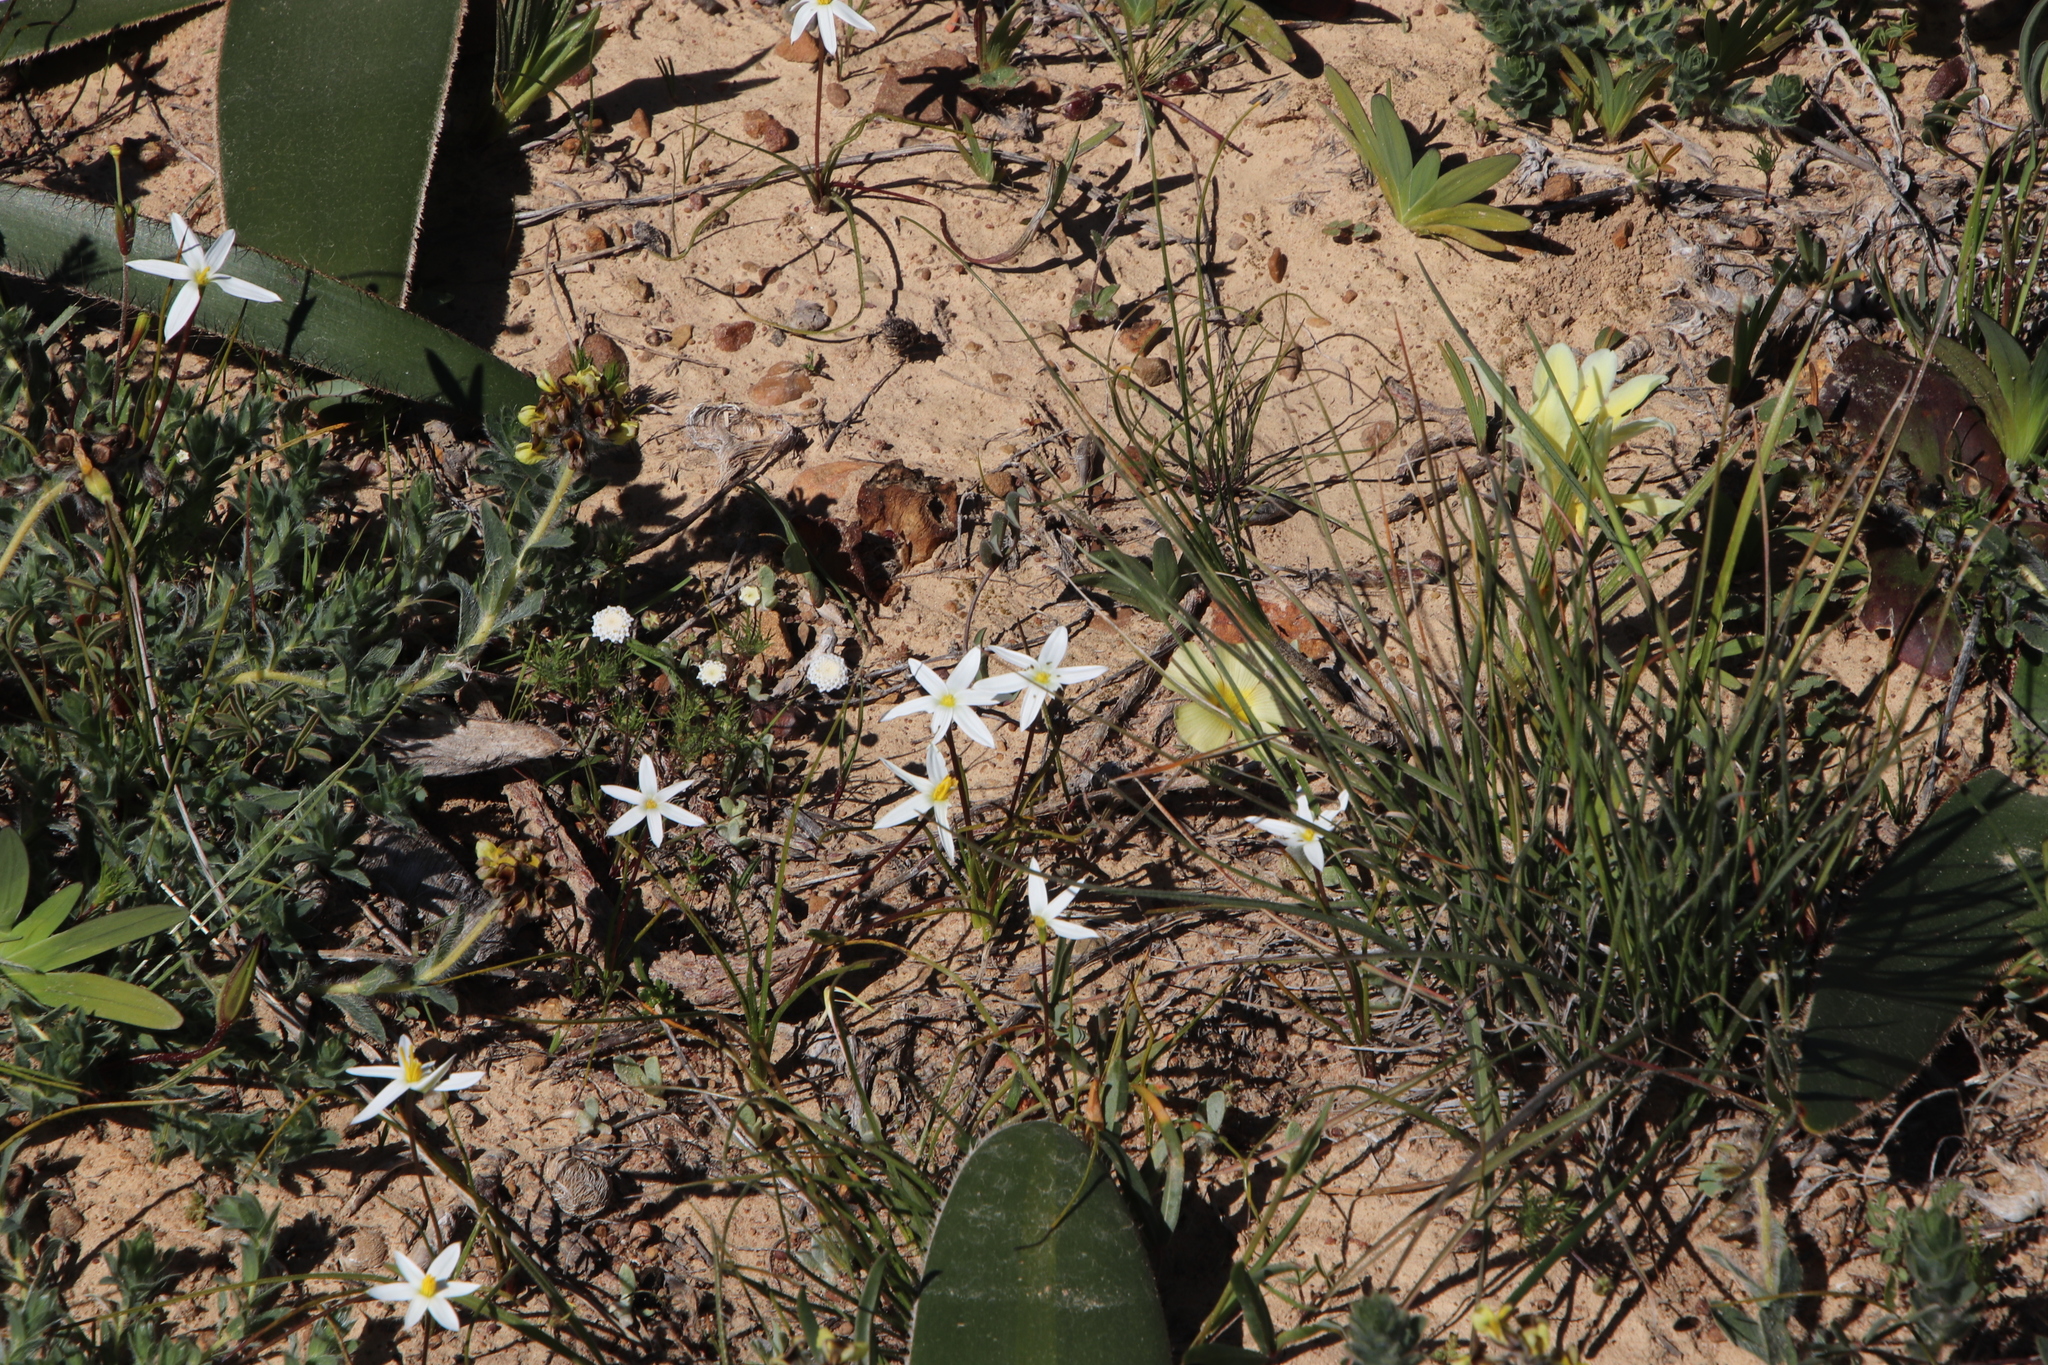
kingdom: Plantae
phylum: Tracheophyta
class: Liliopsida
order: Asparagales
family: Hypoxidaceae
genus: Pauridia
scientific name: Pauridia serrata
